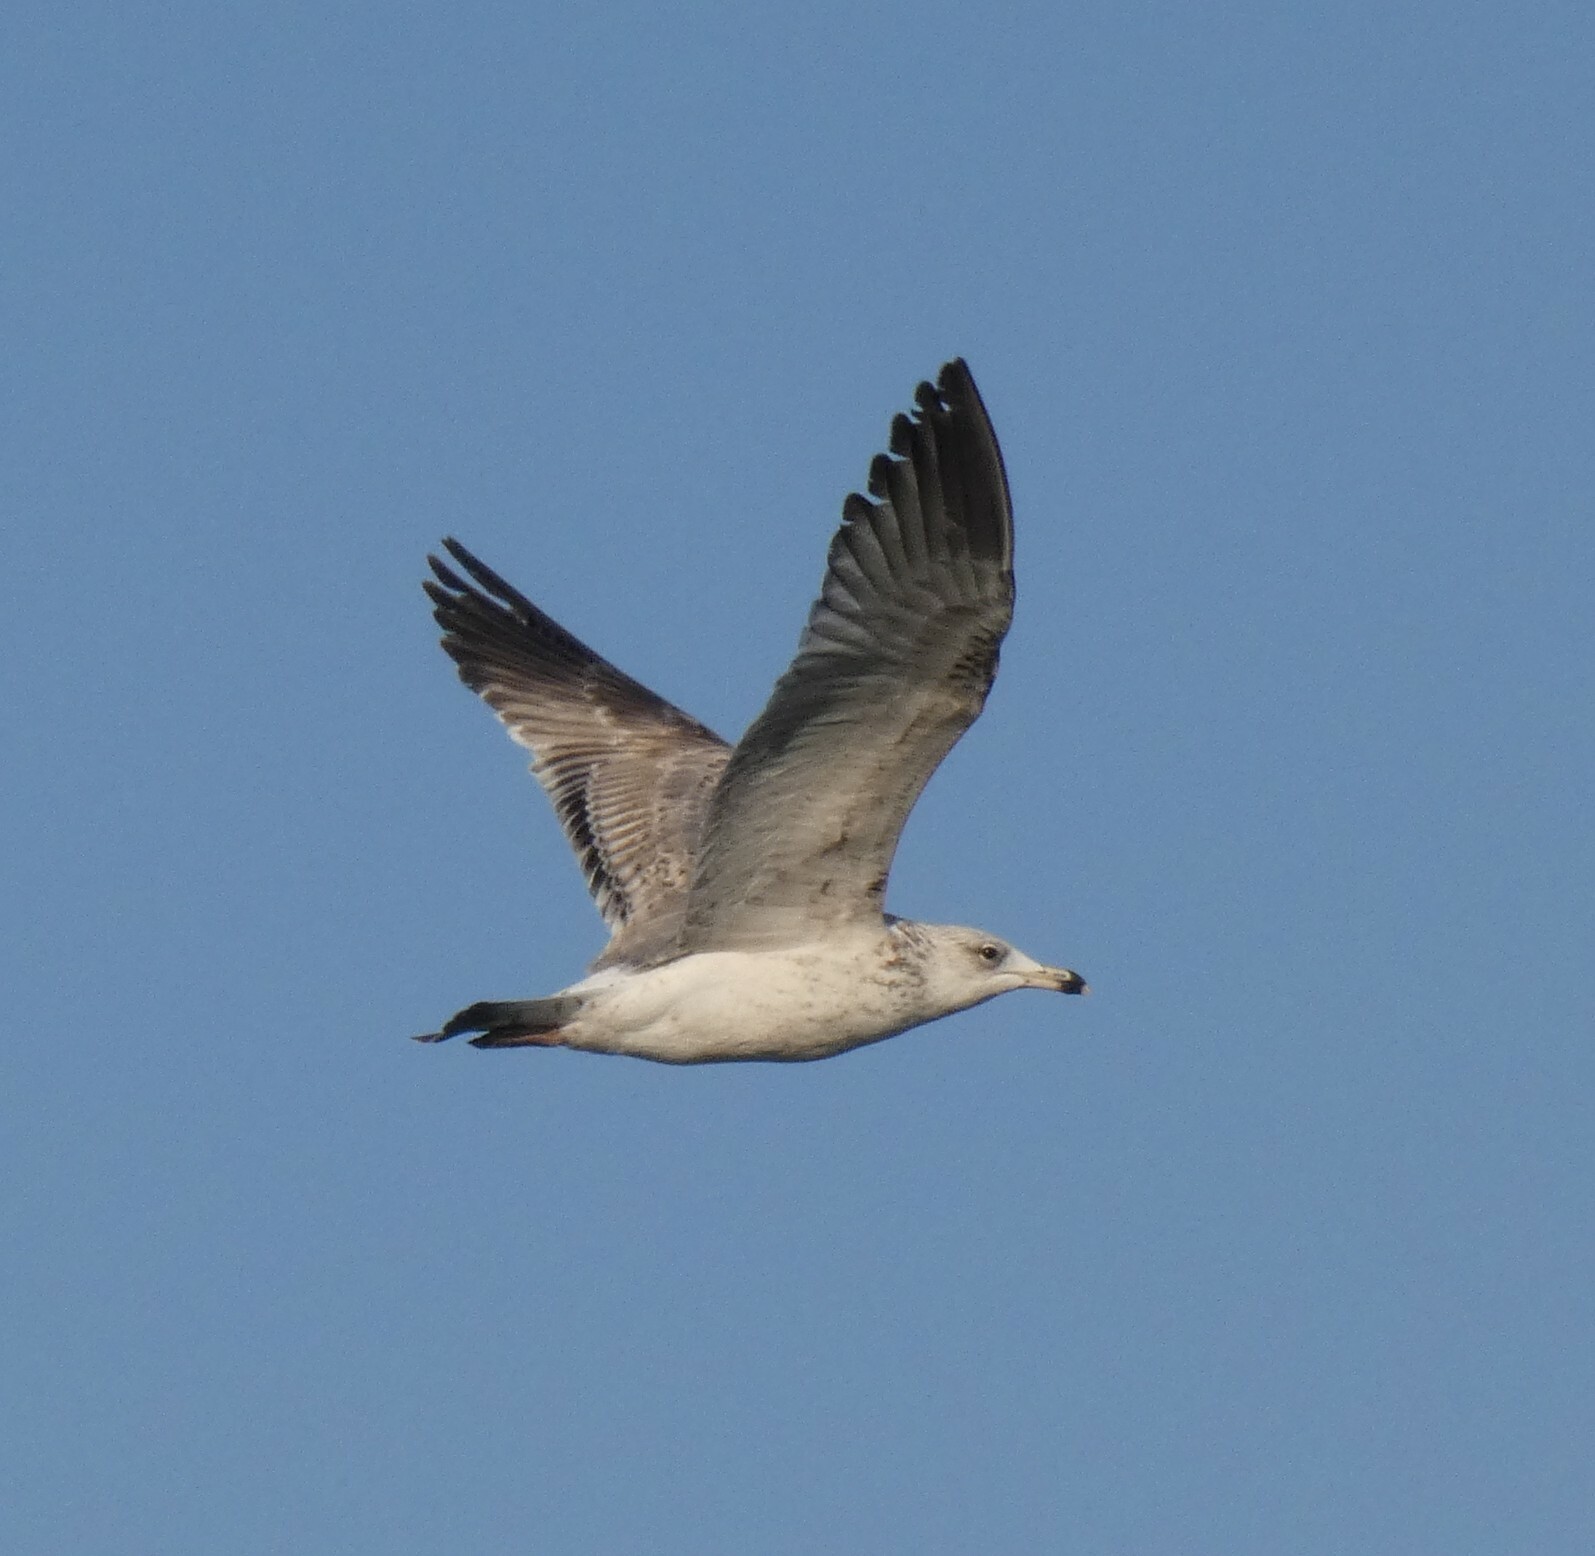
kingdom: Animalia
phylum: Chordata
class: Aves
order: Charadriiformes
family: Laridae
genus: Larus
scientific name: Larus fuscus
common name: Lesser black-backed gull
